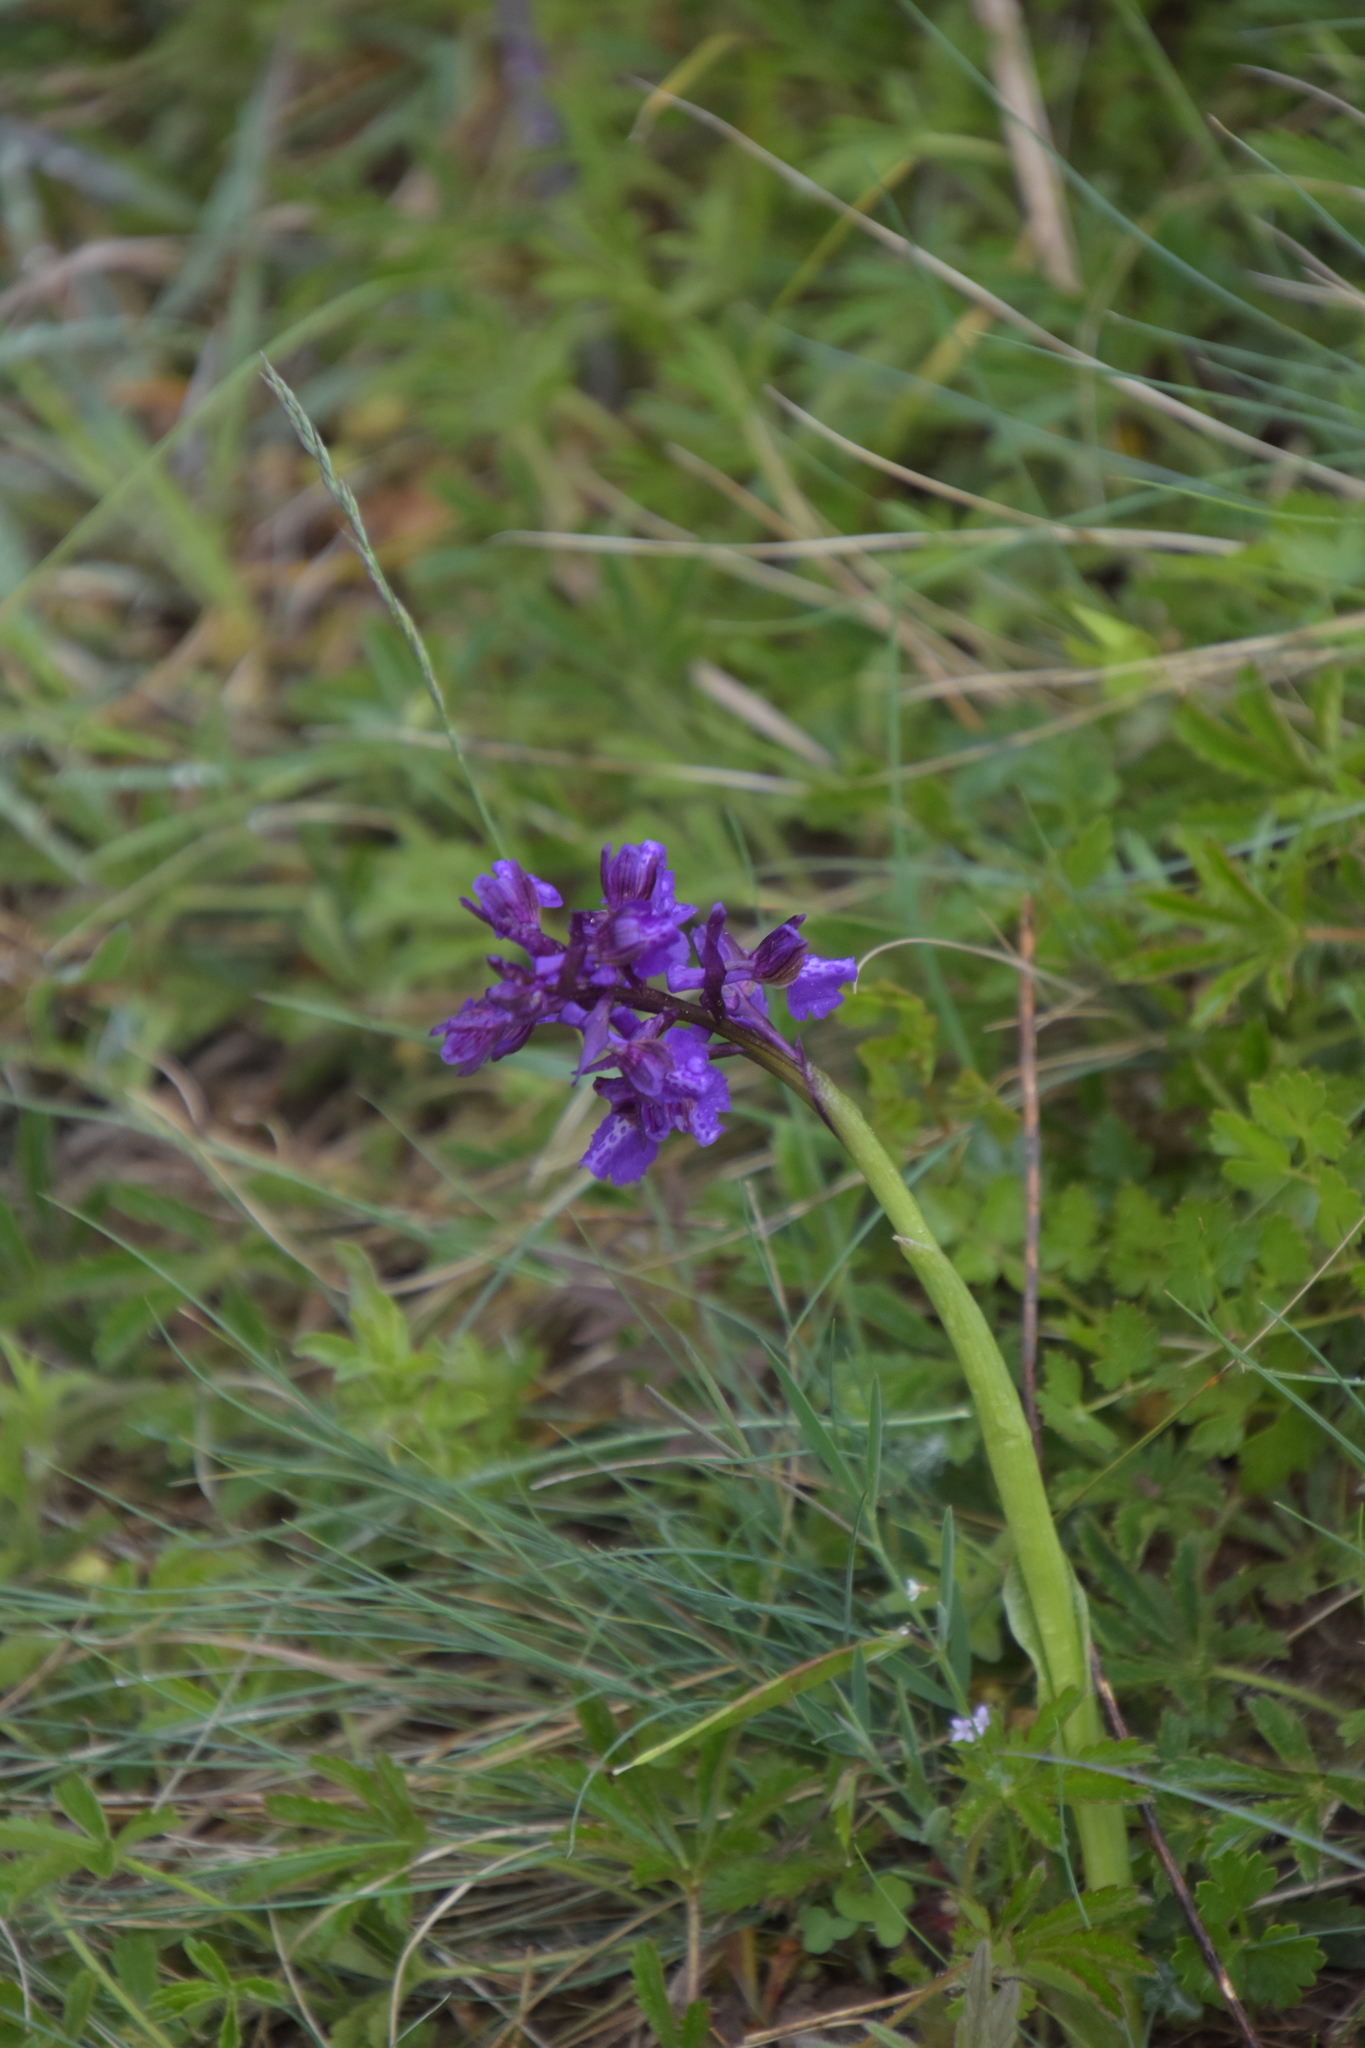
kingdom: Plantae
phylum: Tracheophyta
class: Liliopsida
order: Asparagales
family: Orchidaceae
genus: Anacamptis
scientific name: Anacamptis morio
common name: Green-winged orchid
